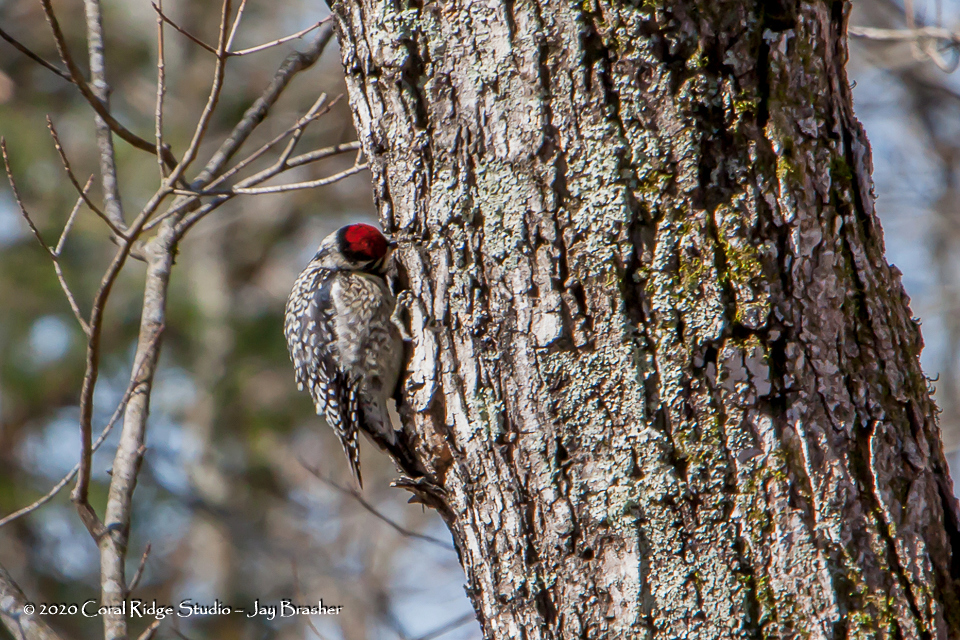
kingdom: Animalia
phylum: Chordata
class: Aves
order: Piciformes
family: Picidae
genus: Sphyrapicus
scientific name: Sphyrapicus varius
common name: Yellow-bellied sapsucker
